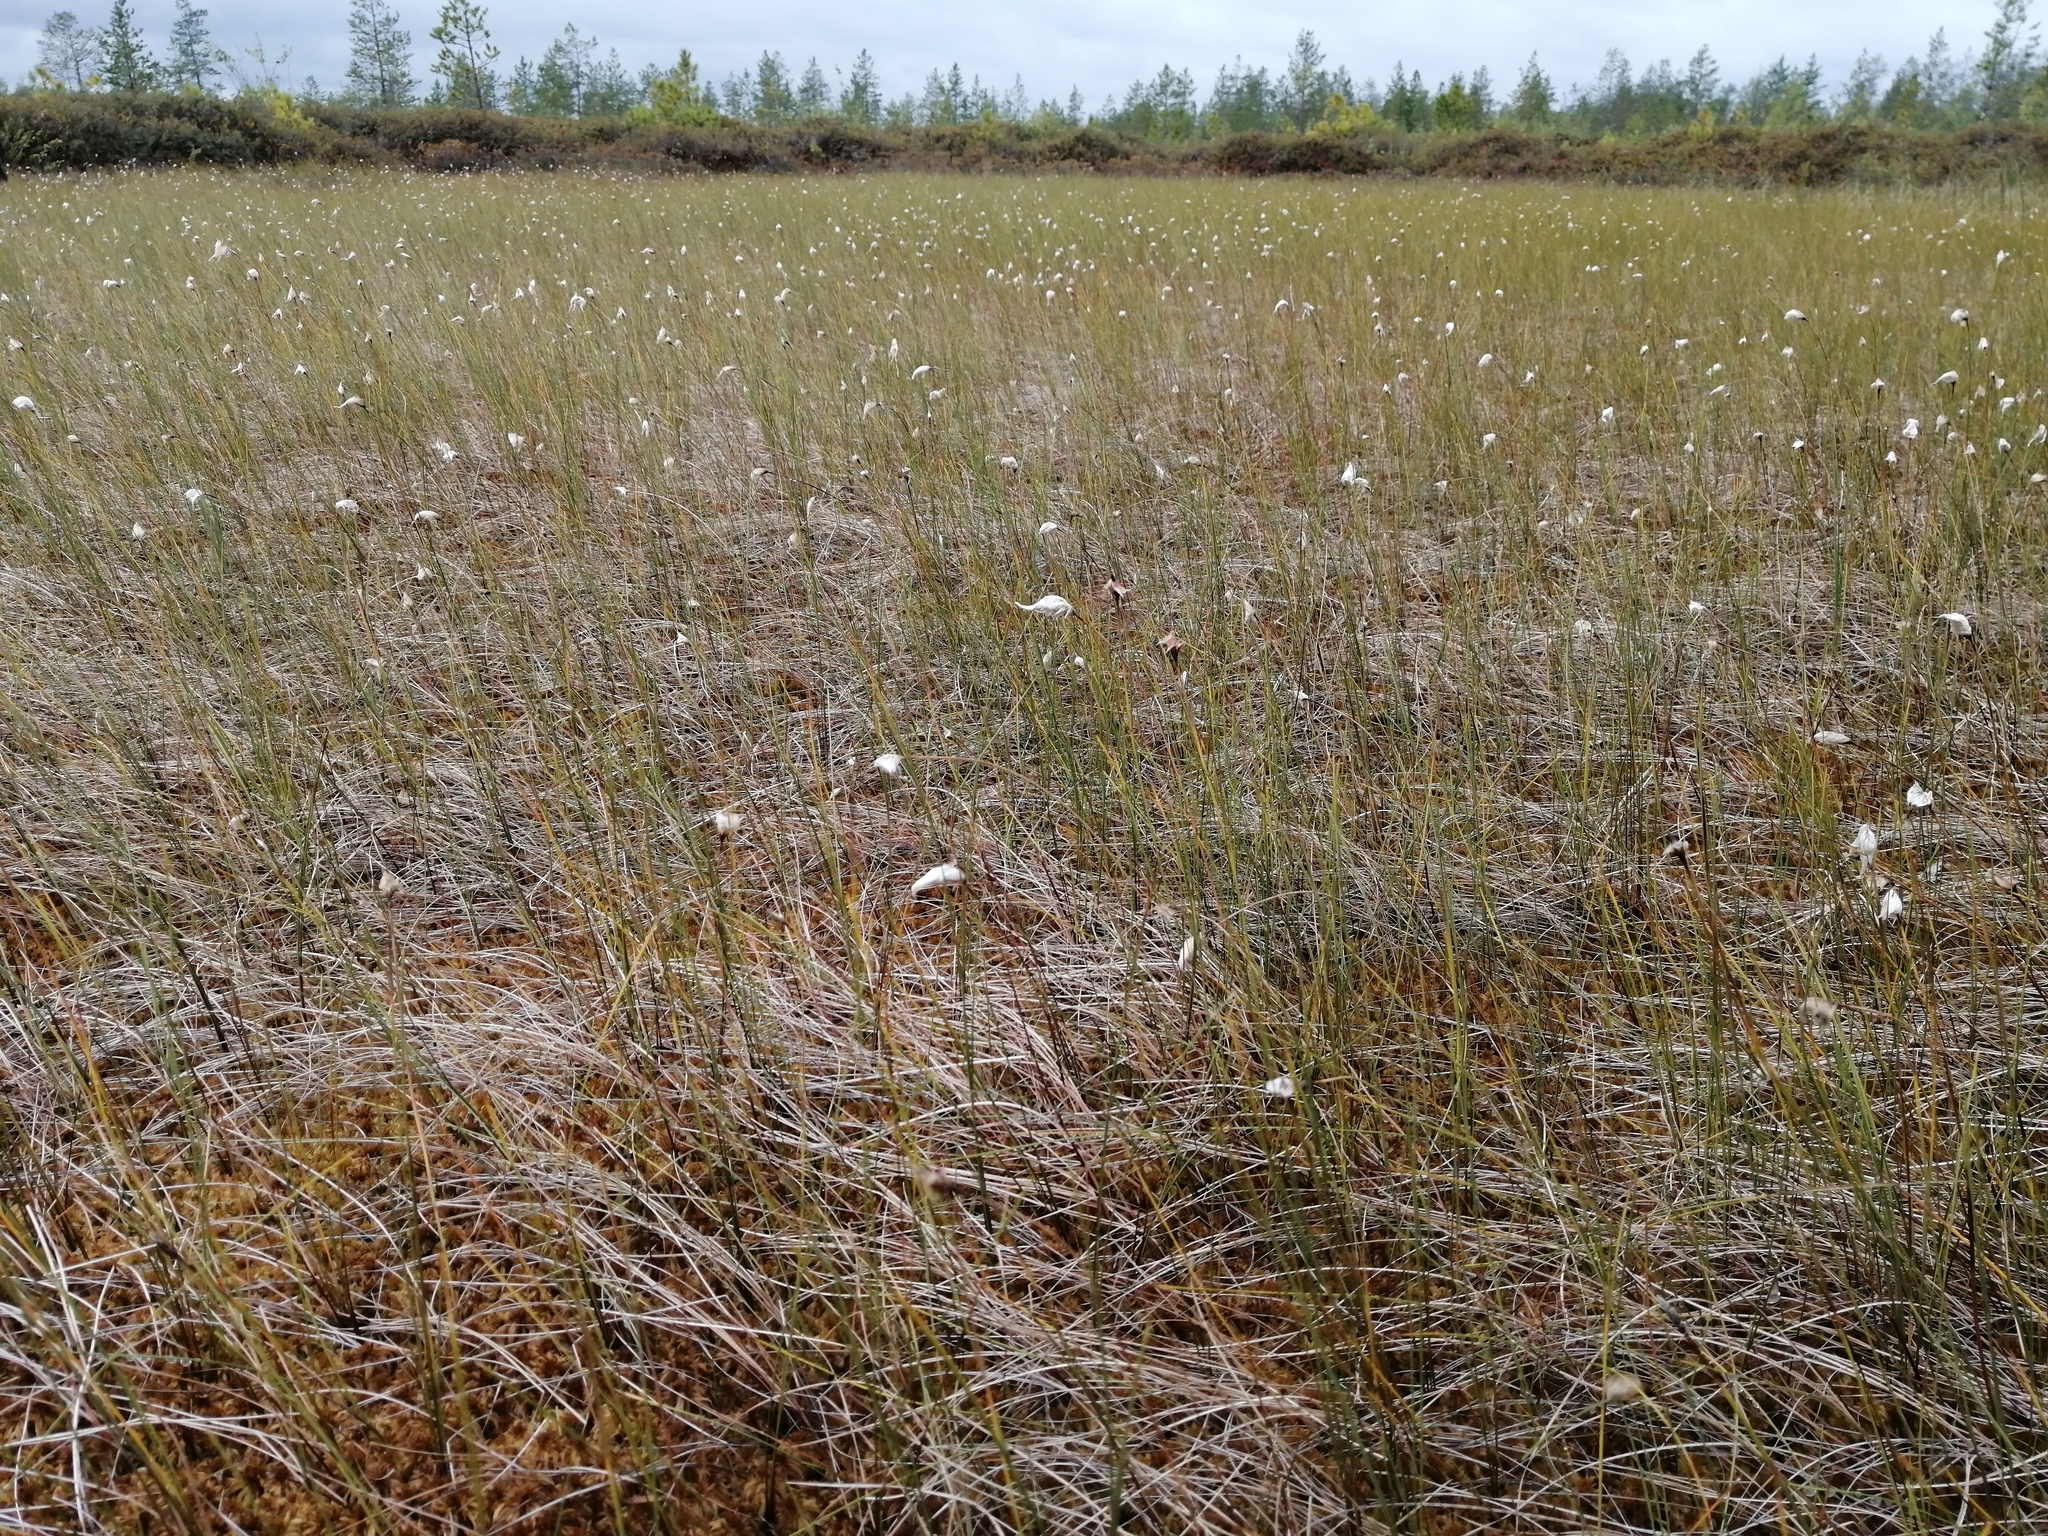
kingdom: Plantae
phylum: Tracheophyta
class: Liliopsida
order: Poales
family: Cyperaceae
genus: Eriophorum
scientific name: Eriophorum chamissonis
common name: Chamisso's cottongrass
